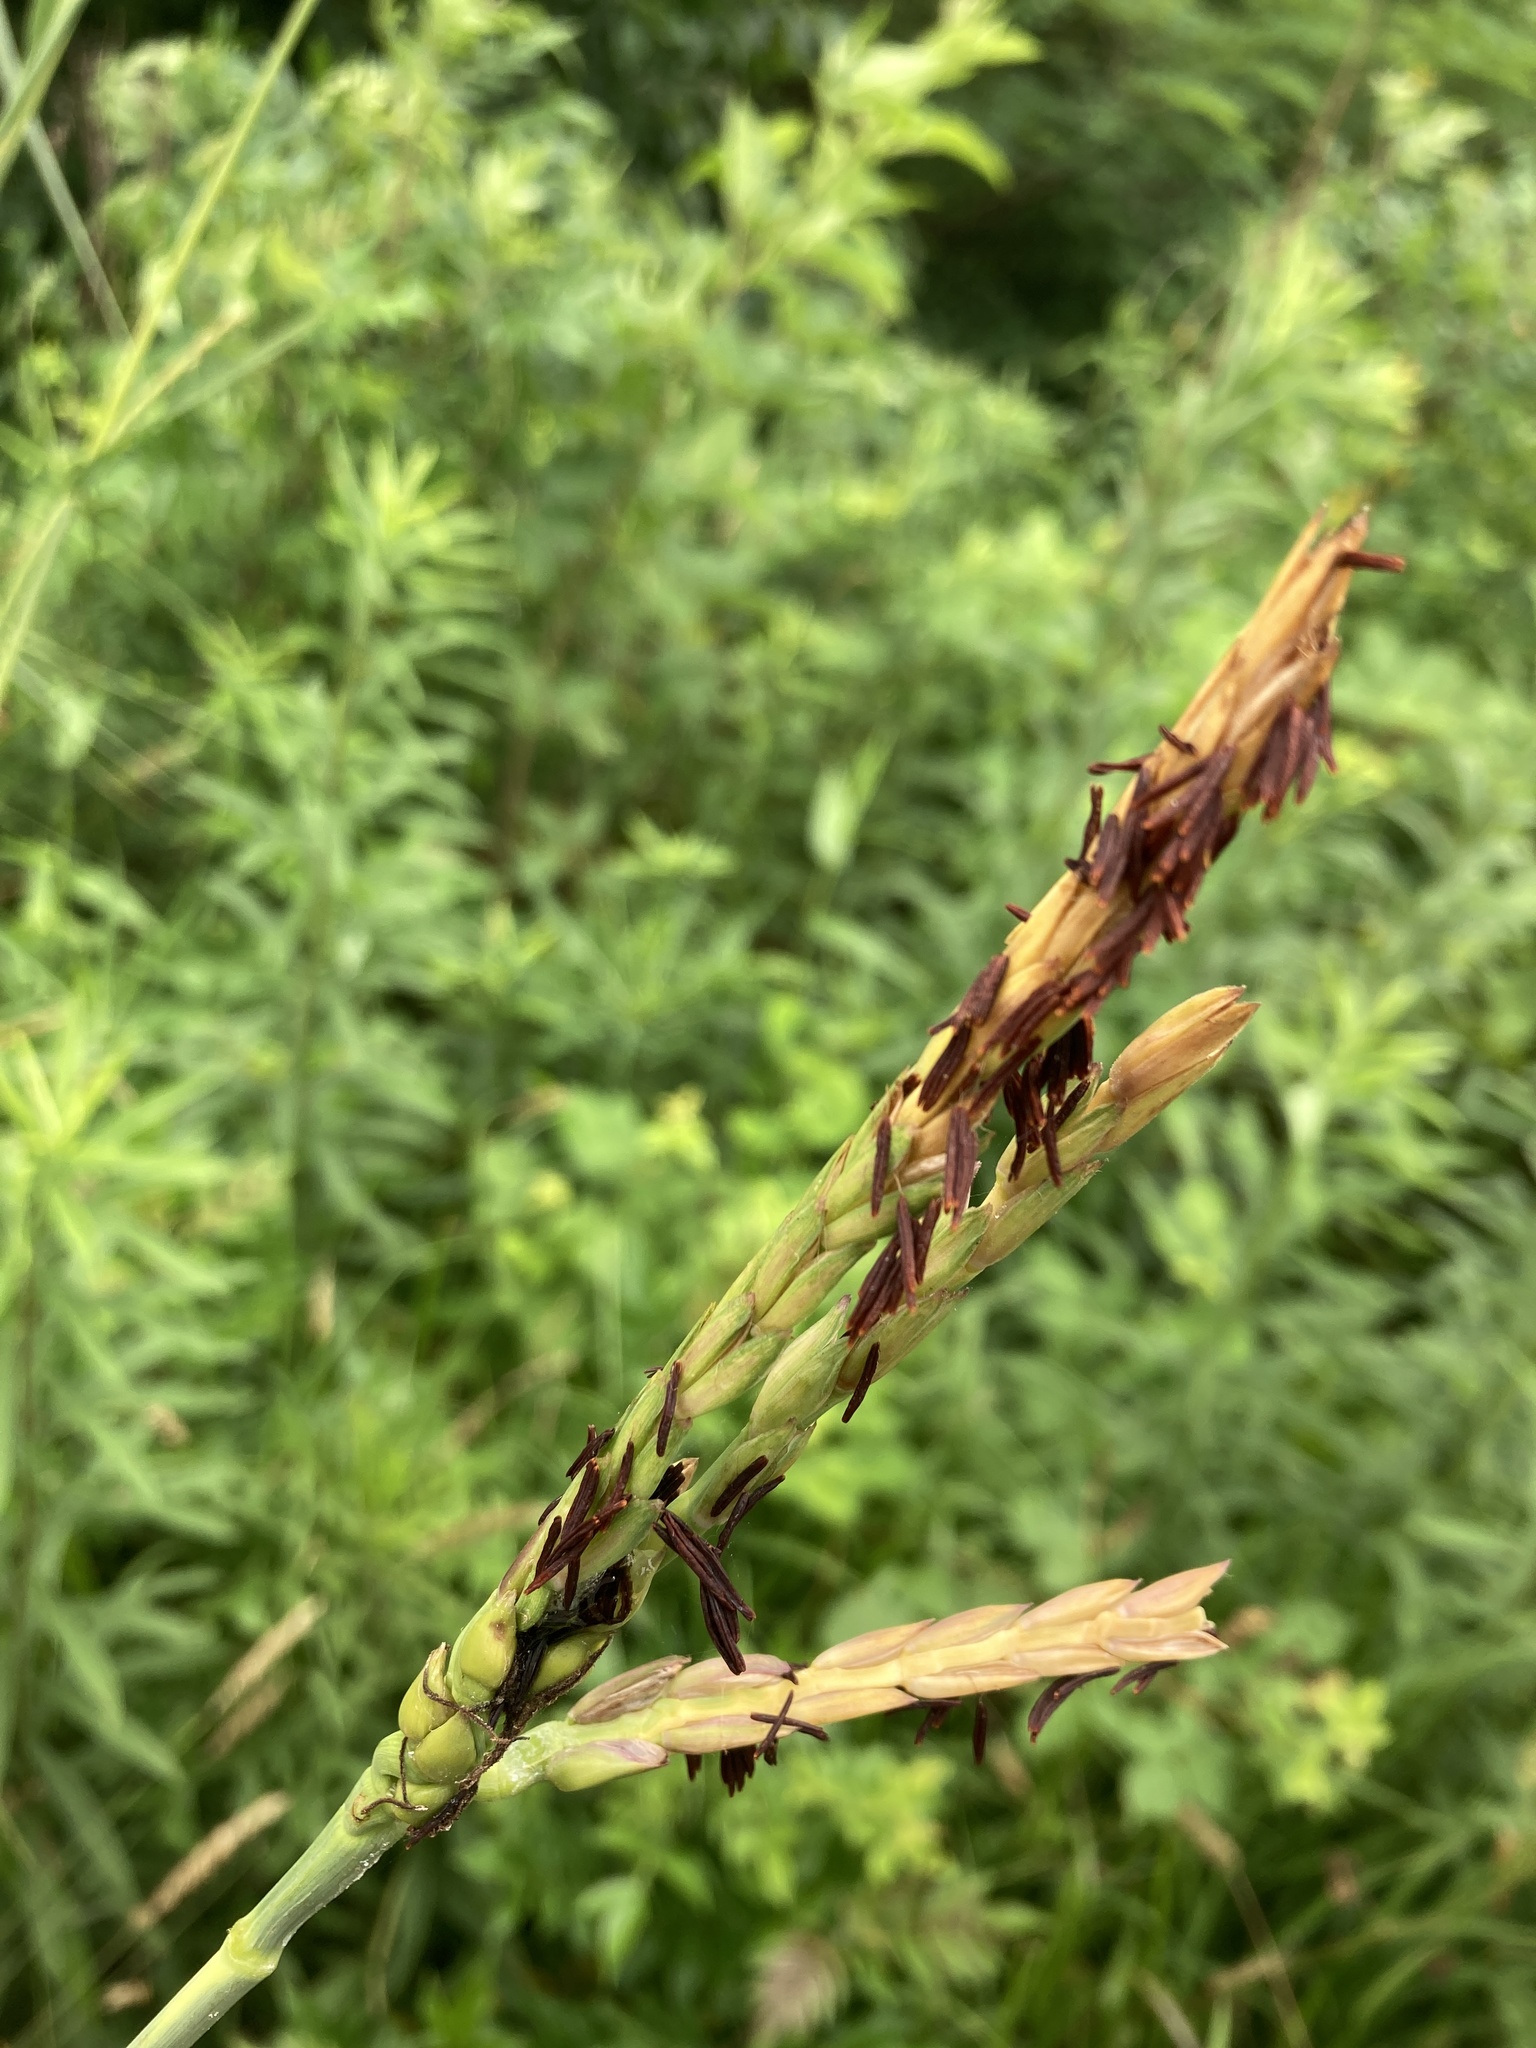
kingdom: Plantae
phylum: Tracheophyta
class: Liliopsida
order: Poales
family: Poaceae
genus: Tripsacum
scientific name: Tripsacum dactyloides
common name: Buffalo-grass
